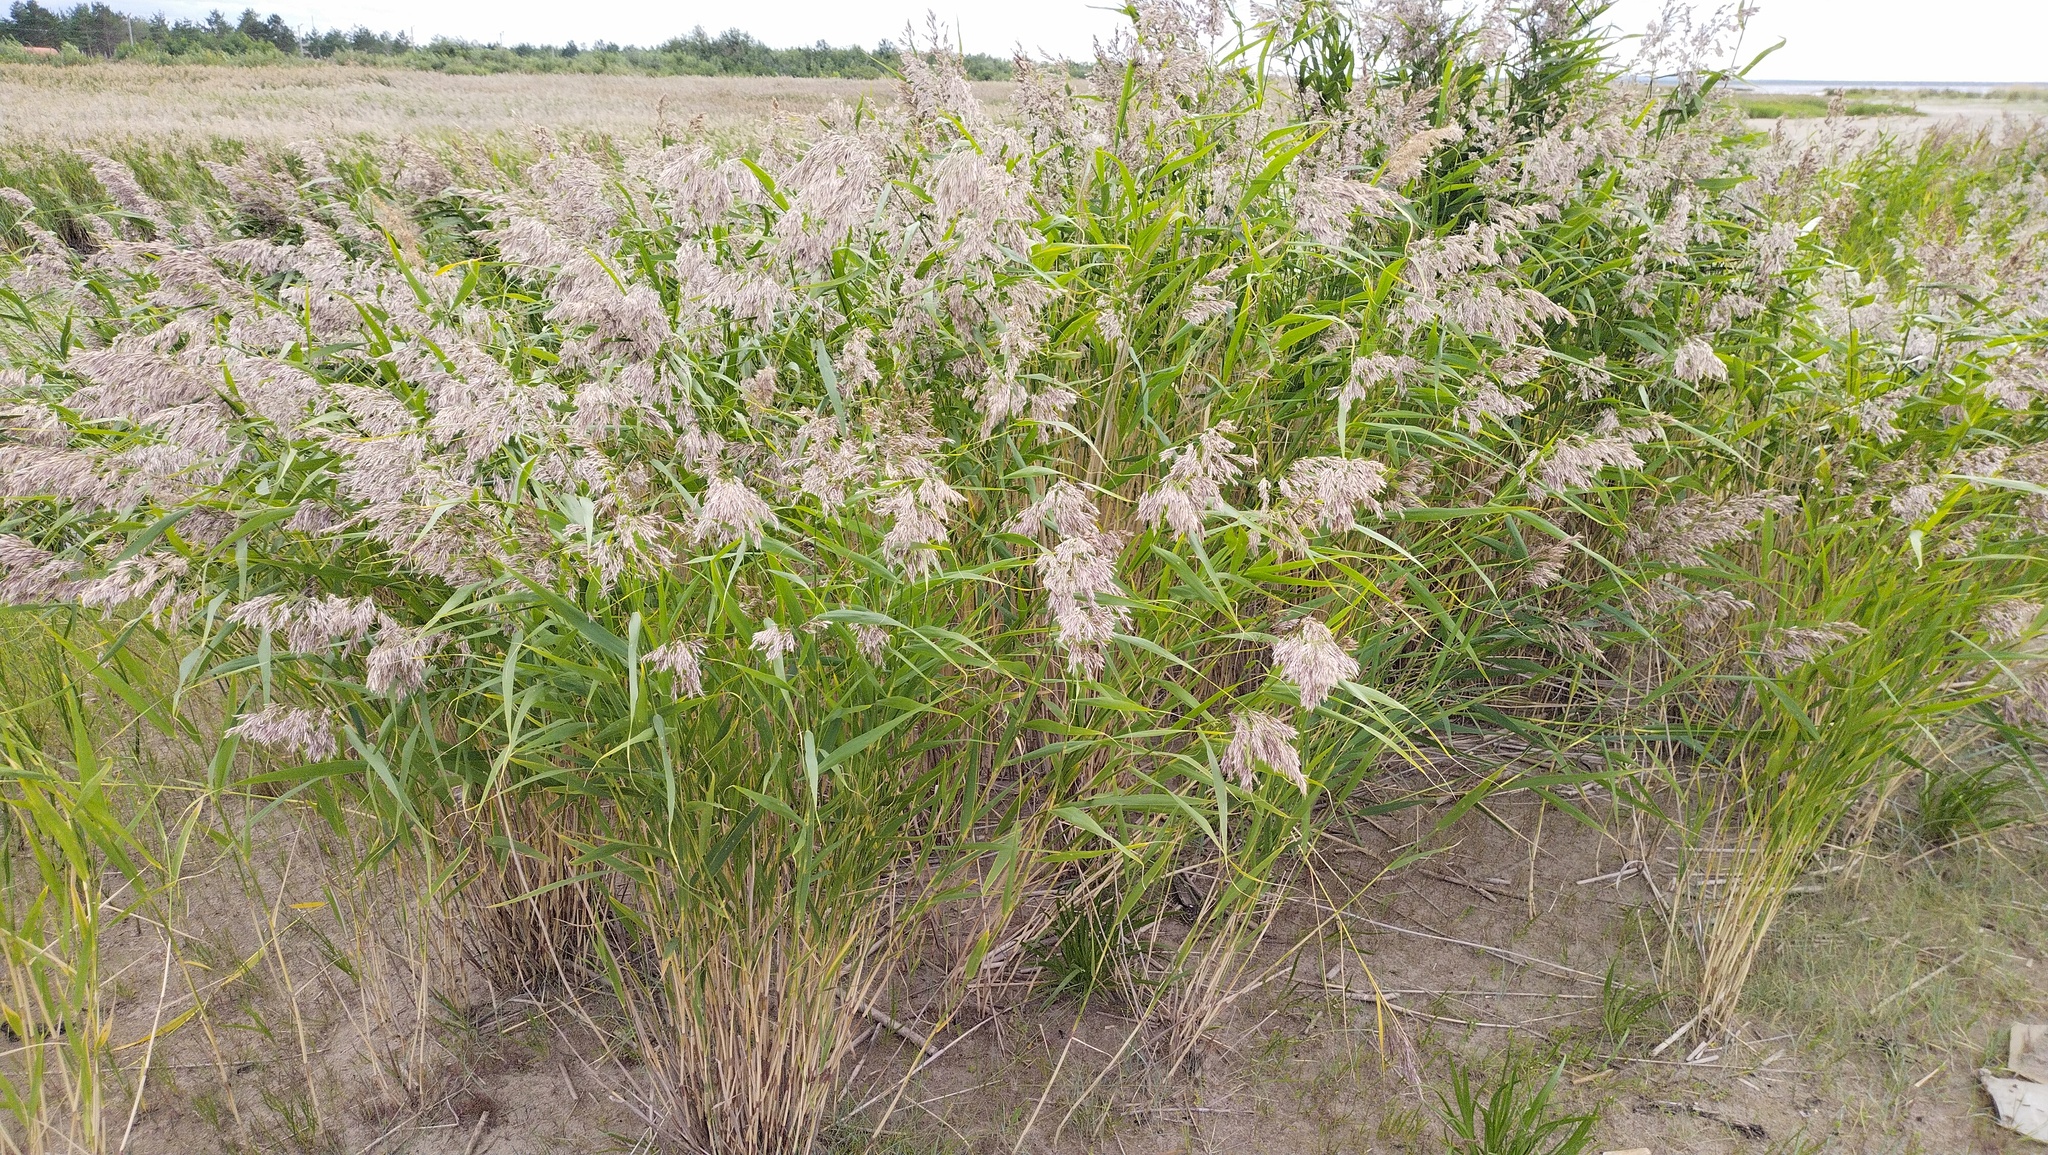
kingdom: Plantae
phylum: Tracheophyta
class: Liliopsida
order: Poales
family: Poaceae
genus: Phragmites
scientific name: Phragmites australis
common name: Common reed
